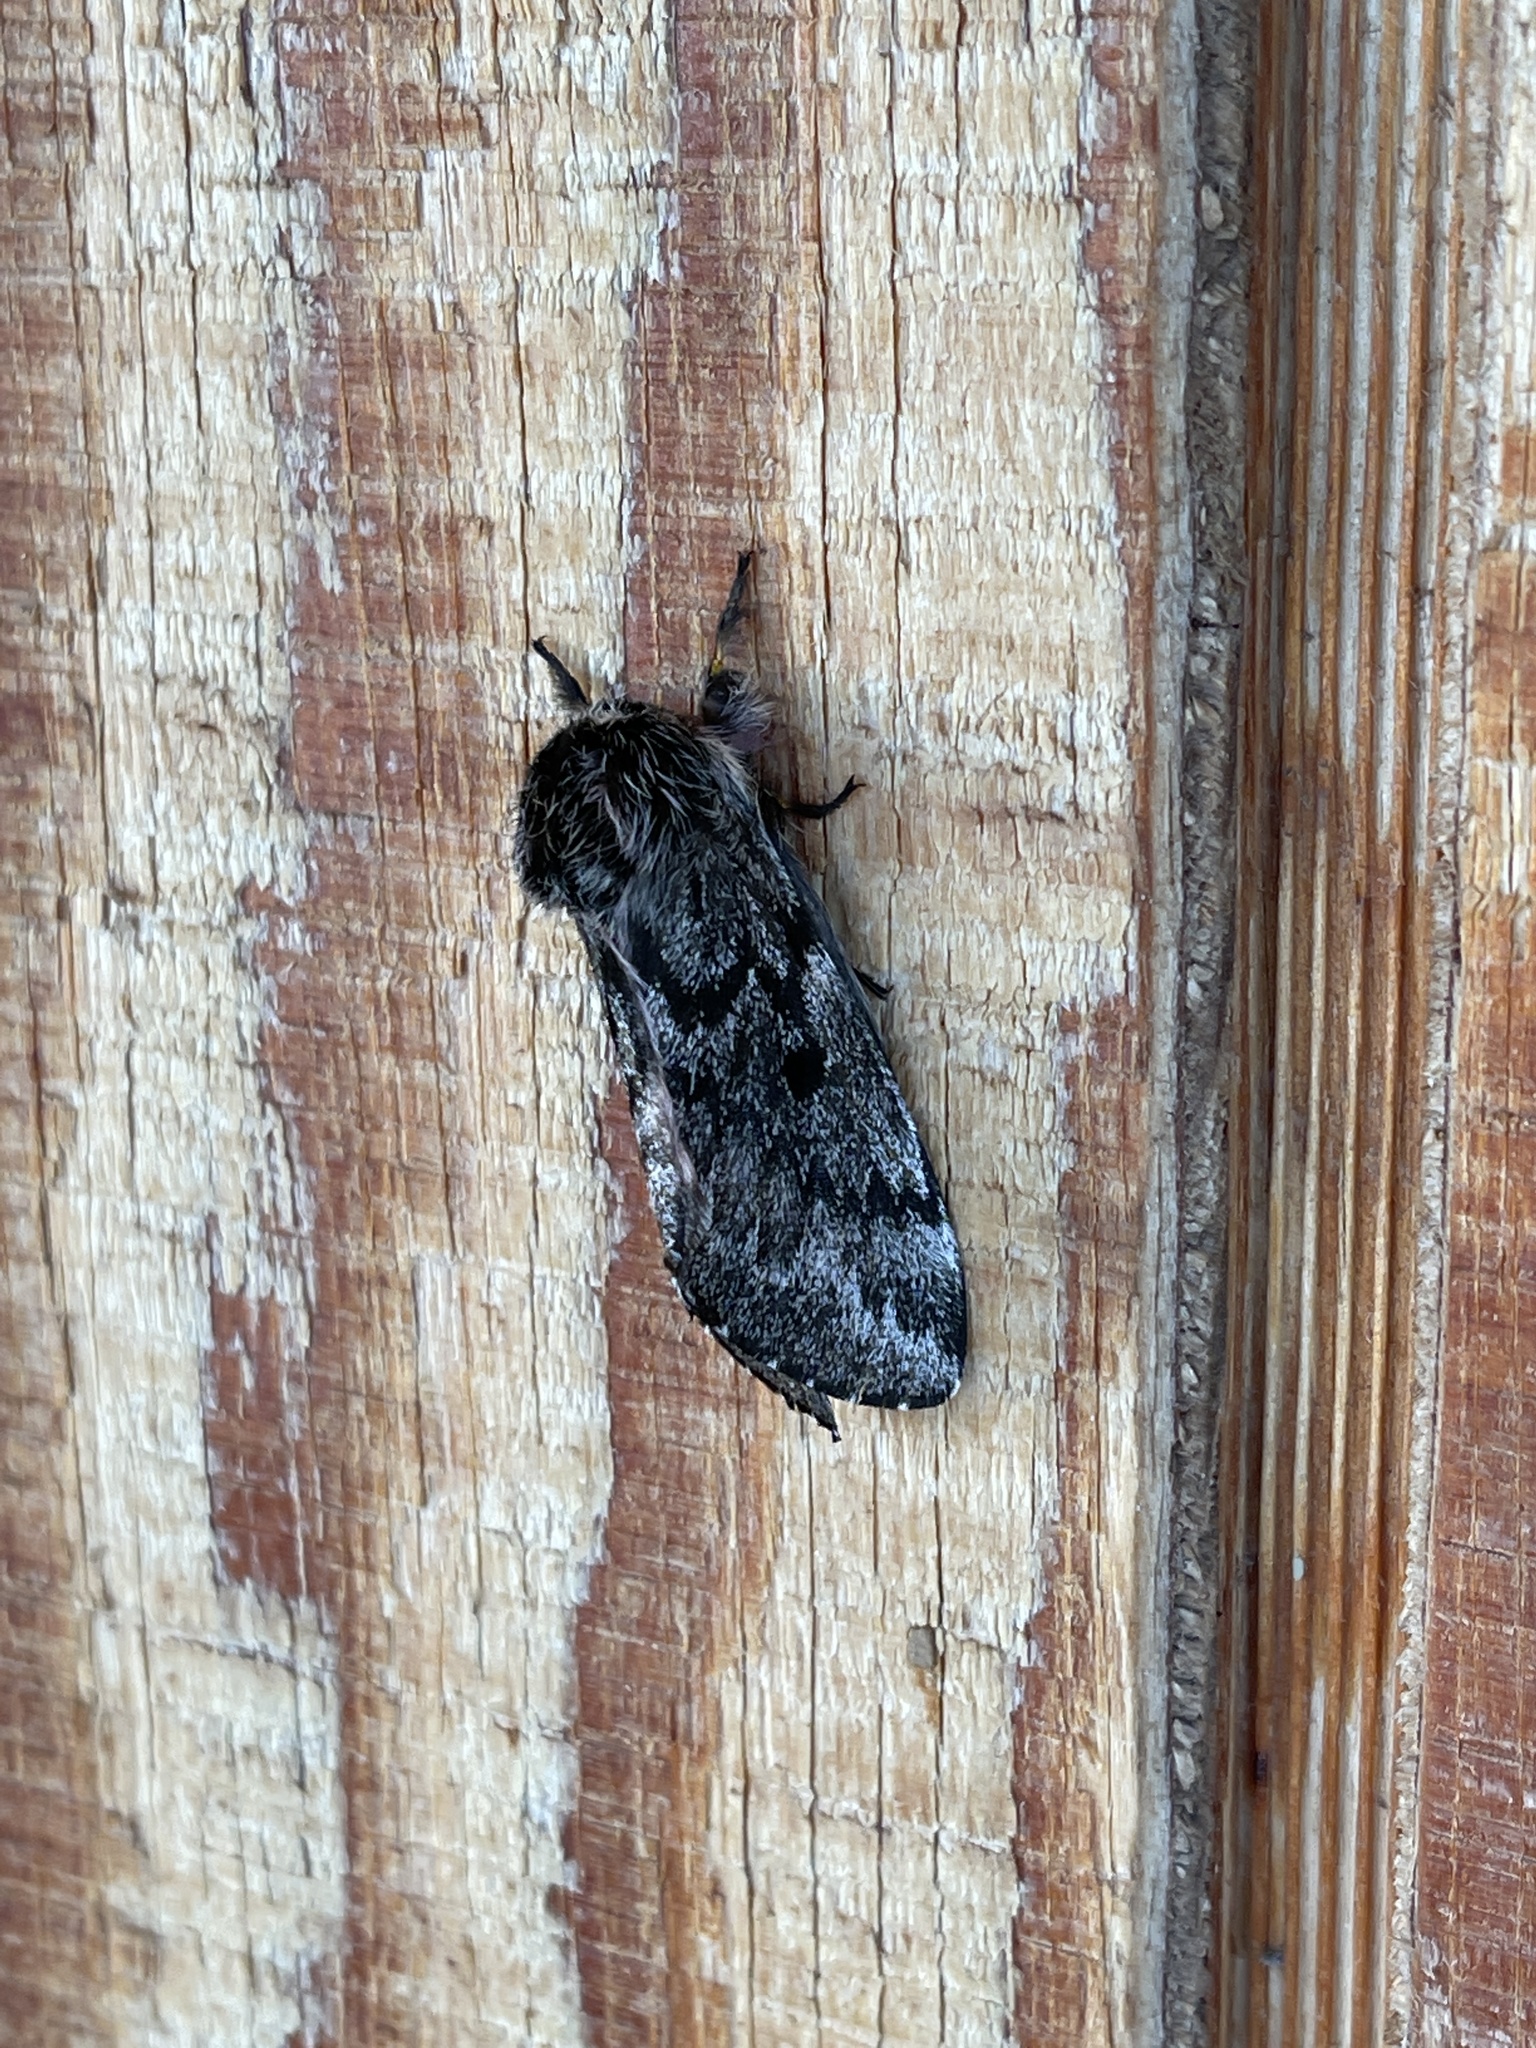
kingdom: Animalia
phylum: Arthropoda
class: Insecta
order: Lepidoptera
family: Saturniidae
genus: Coloradia
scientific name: Coloradia pandora
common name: Pandora pinemoth
